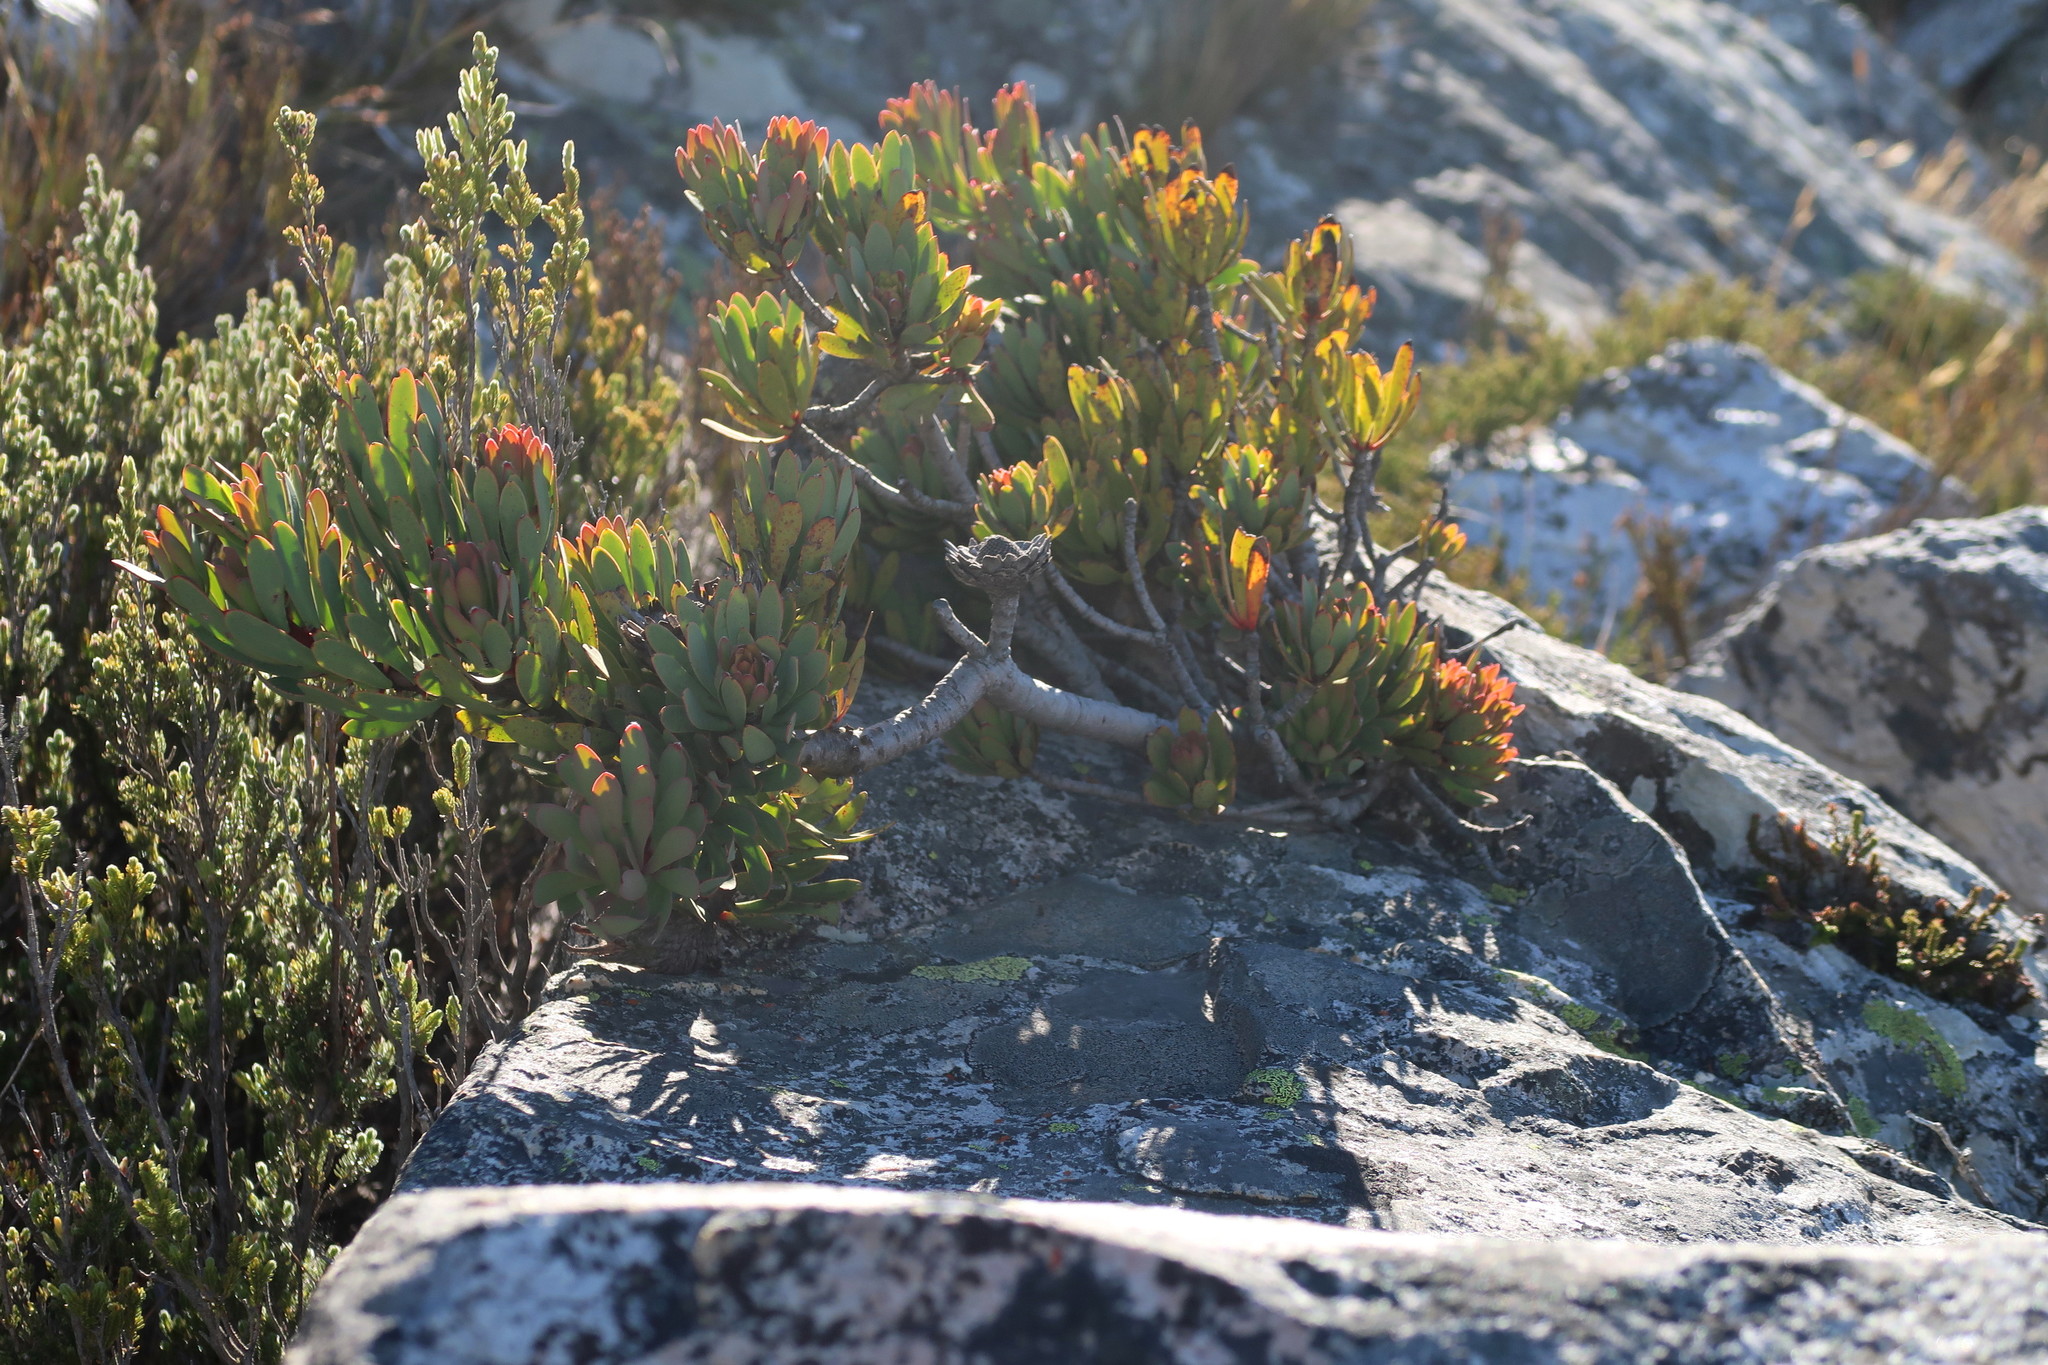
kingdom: Plantae
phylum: Tracheophyta
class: Magnoliopsida
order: Proteales
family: Proteaceae
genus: Protea
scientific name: Protea rupicola
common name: Krantz protea
